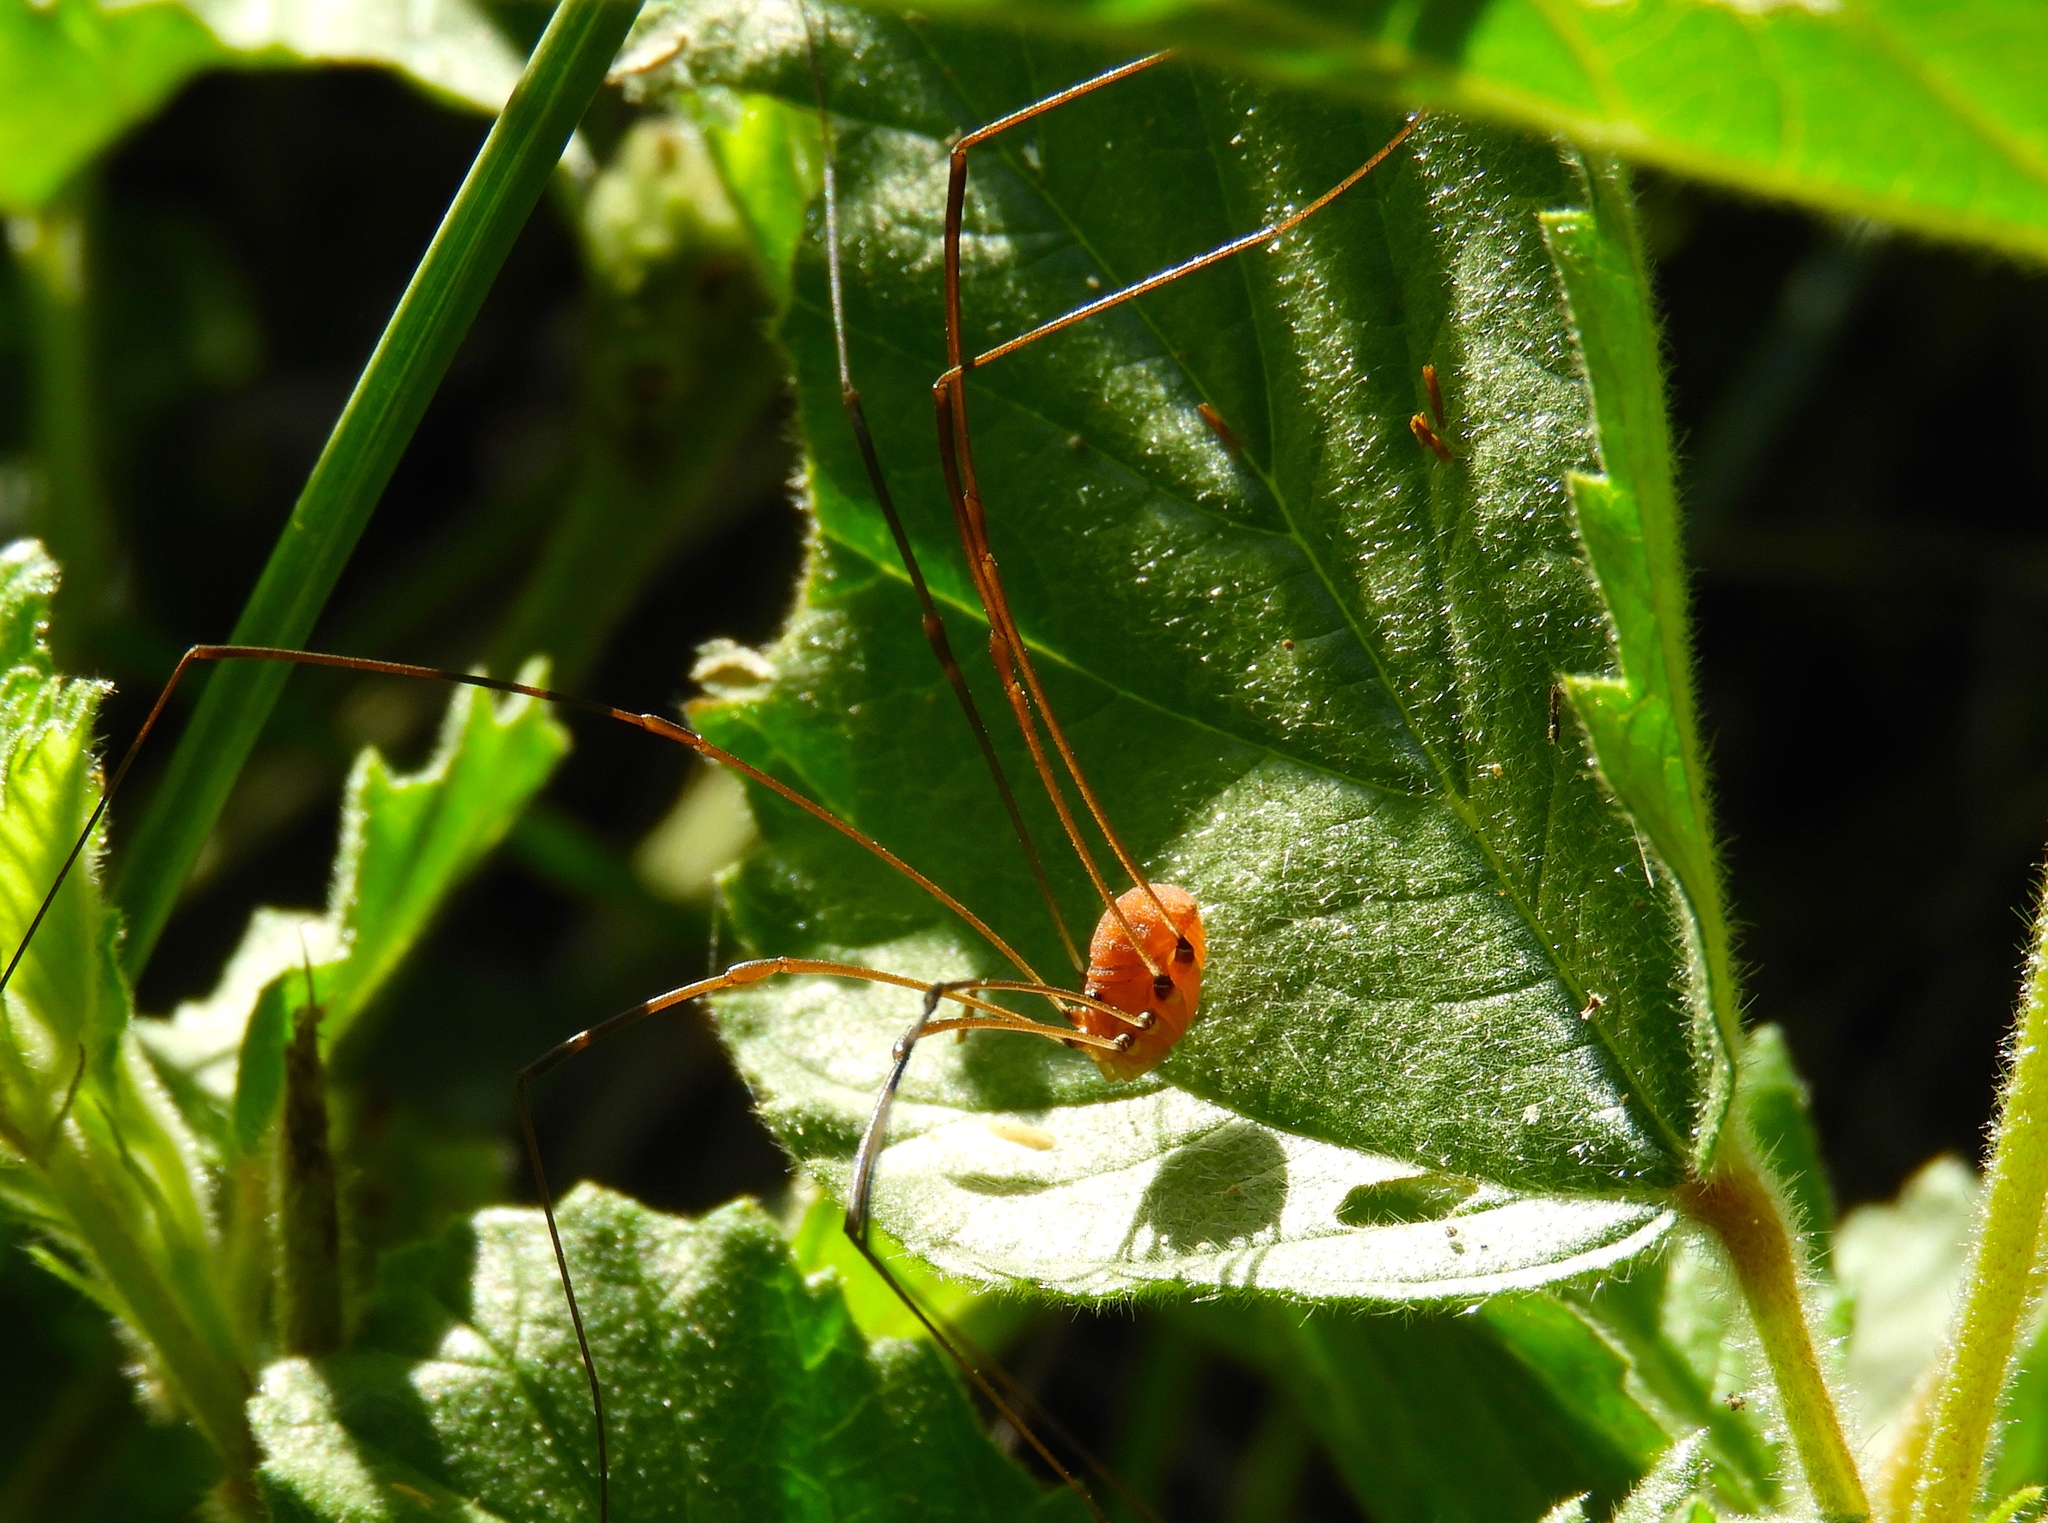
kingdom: Animalia
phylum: Arthropoda
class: Arachnida
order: Opiliones
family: Sclerosomatidae
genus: Leiobunum
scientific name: Leiobunum
